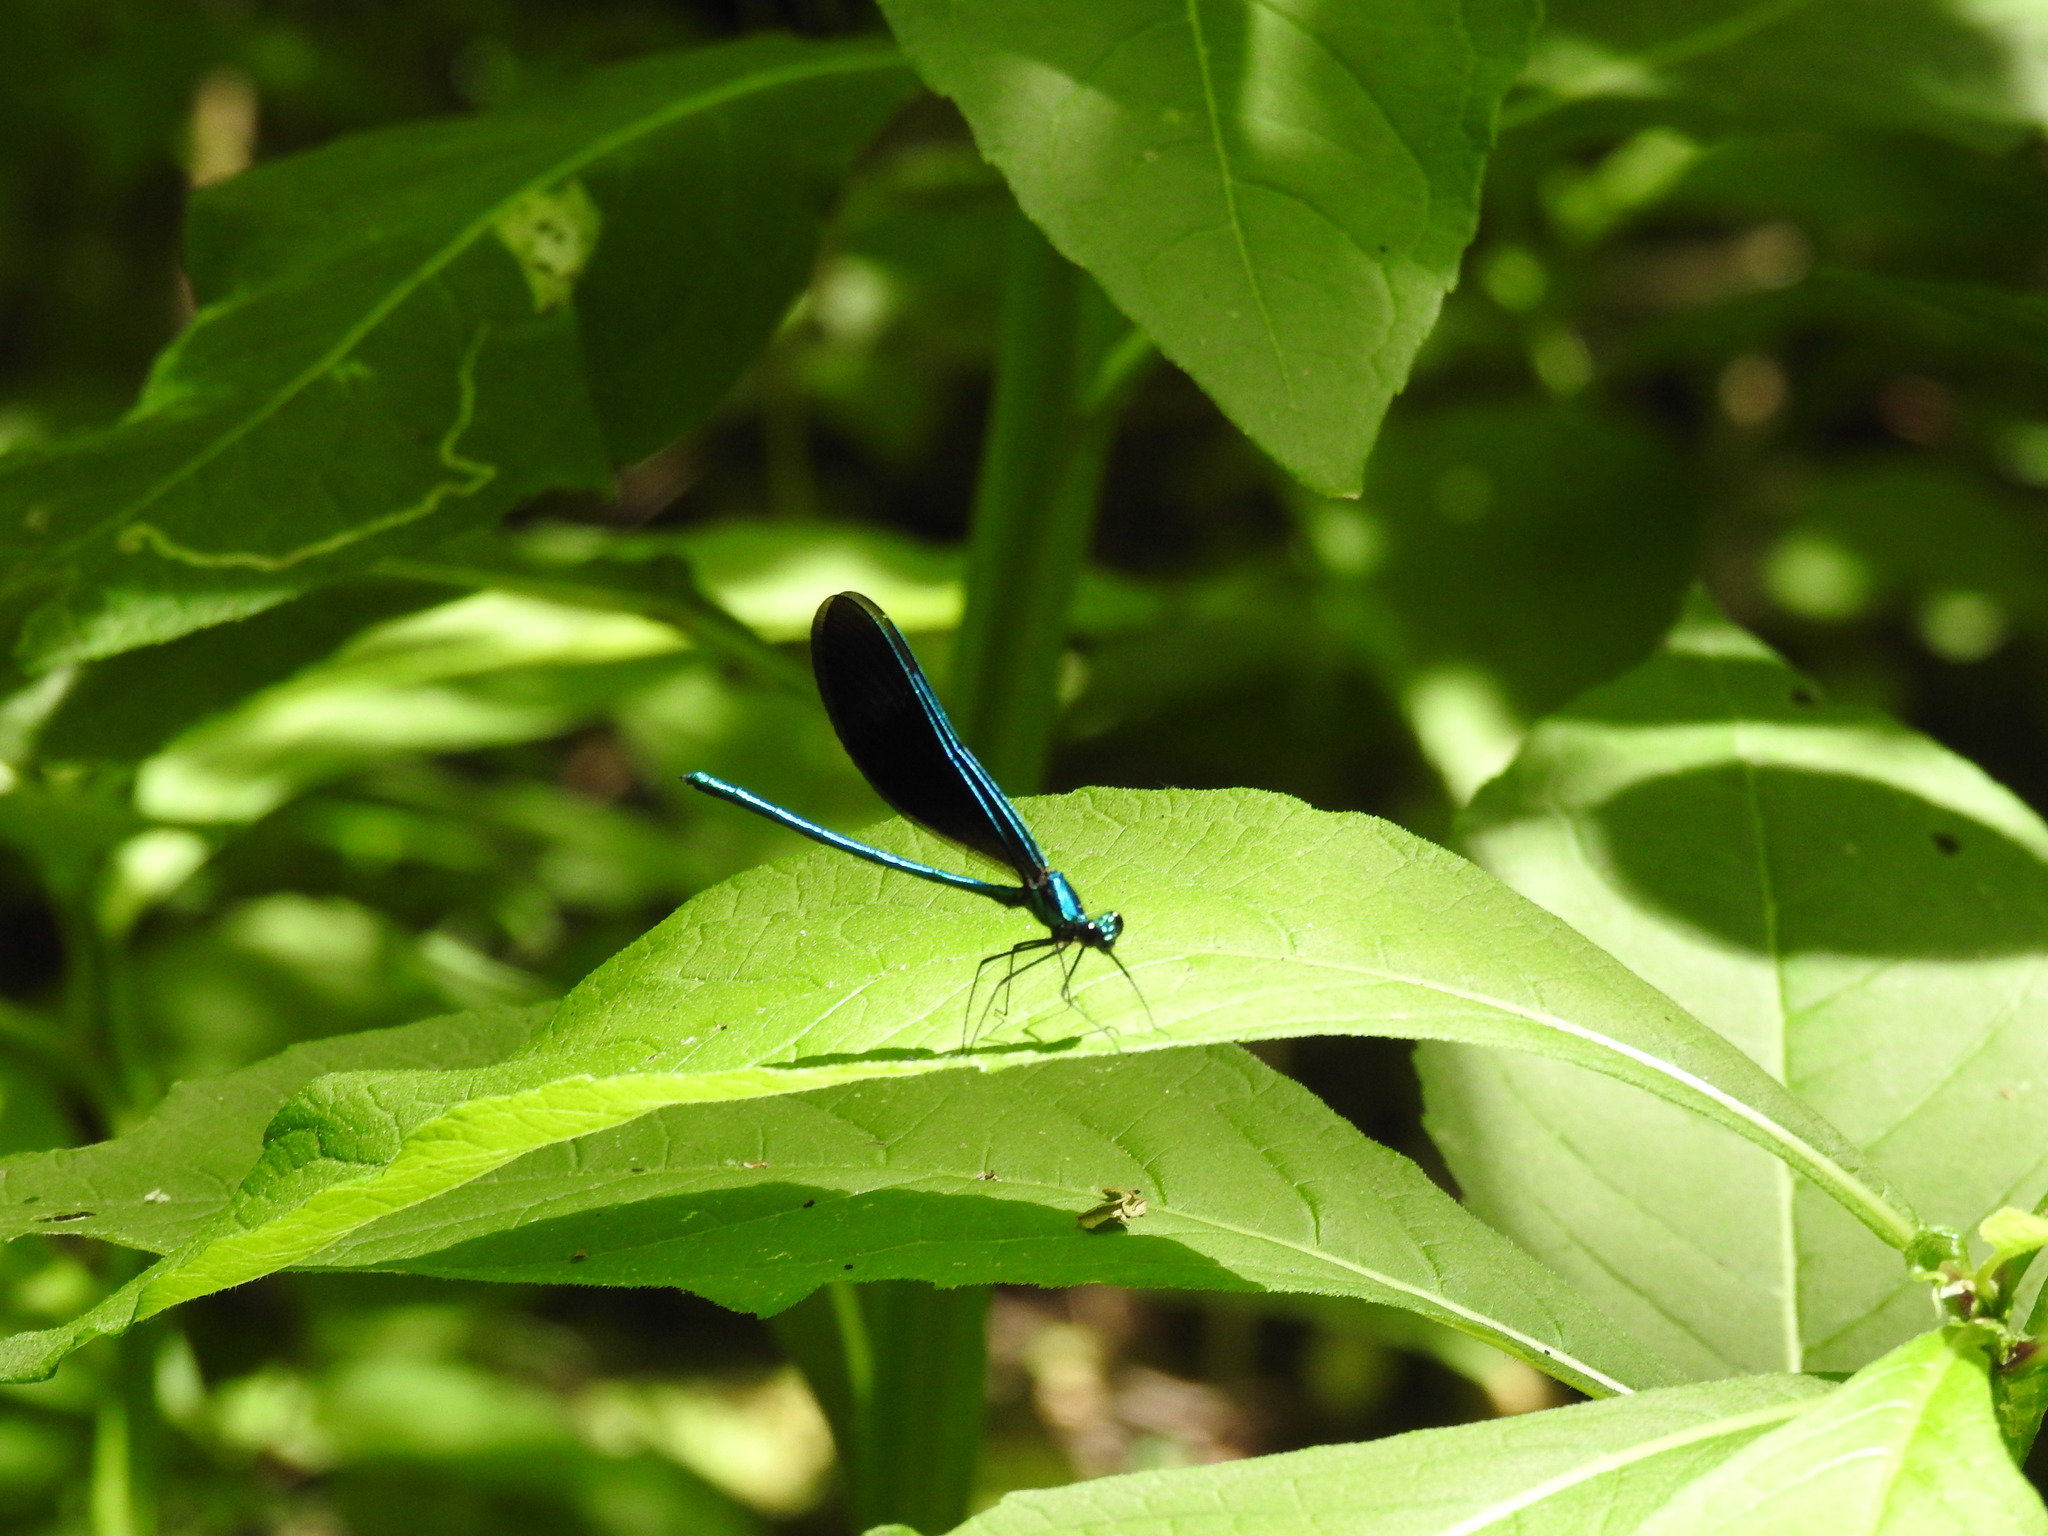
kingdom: Animalia
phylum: Arthropoda
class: Insecta
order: Odonata
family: Calopterygidae
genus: Calopteryx
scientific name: Calopteryx maculata
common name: Ebony jewelwing
